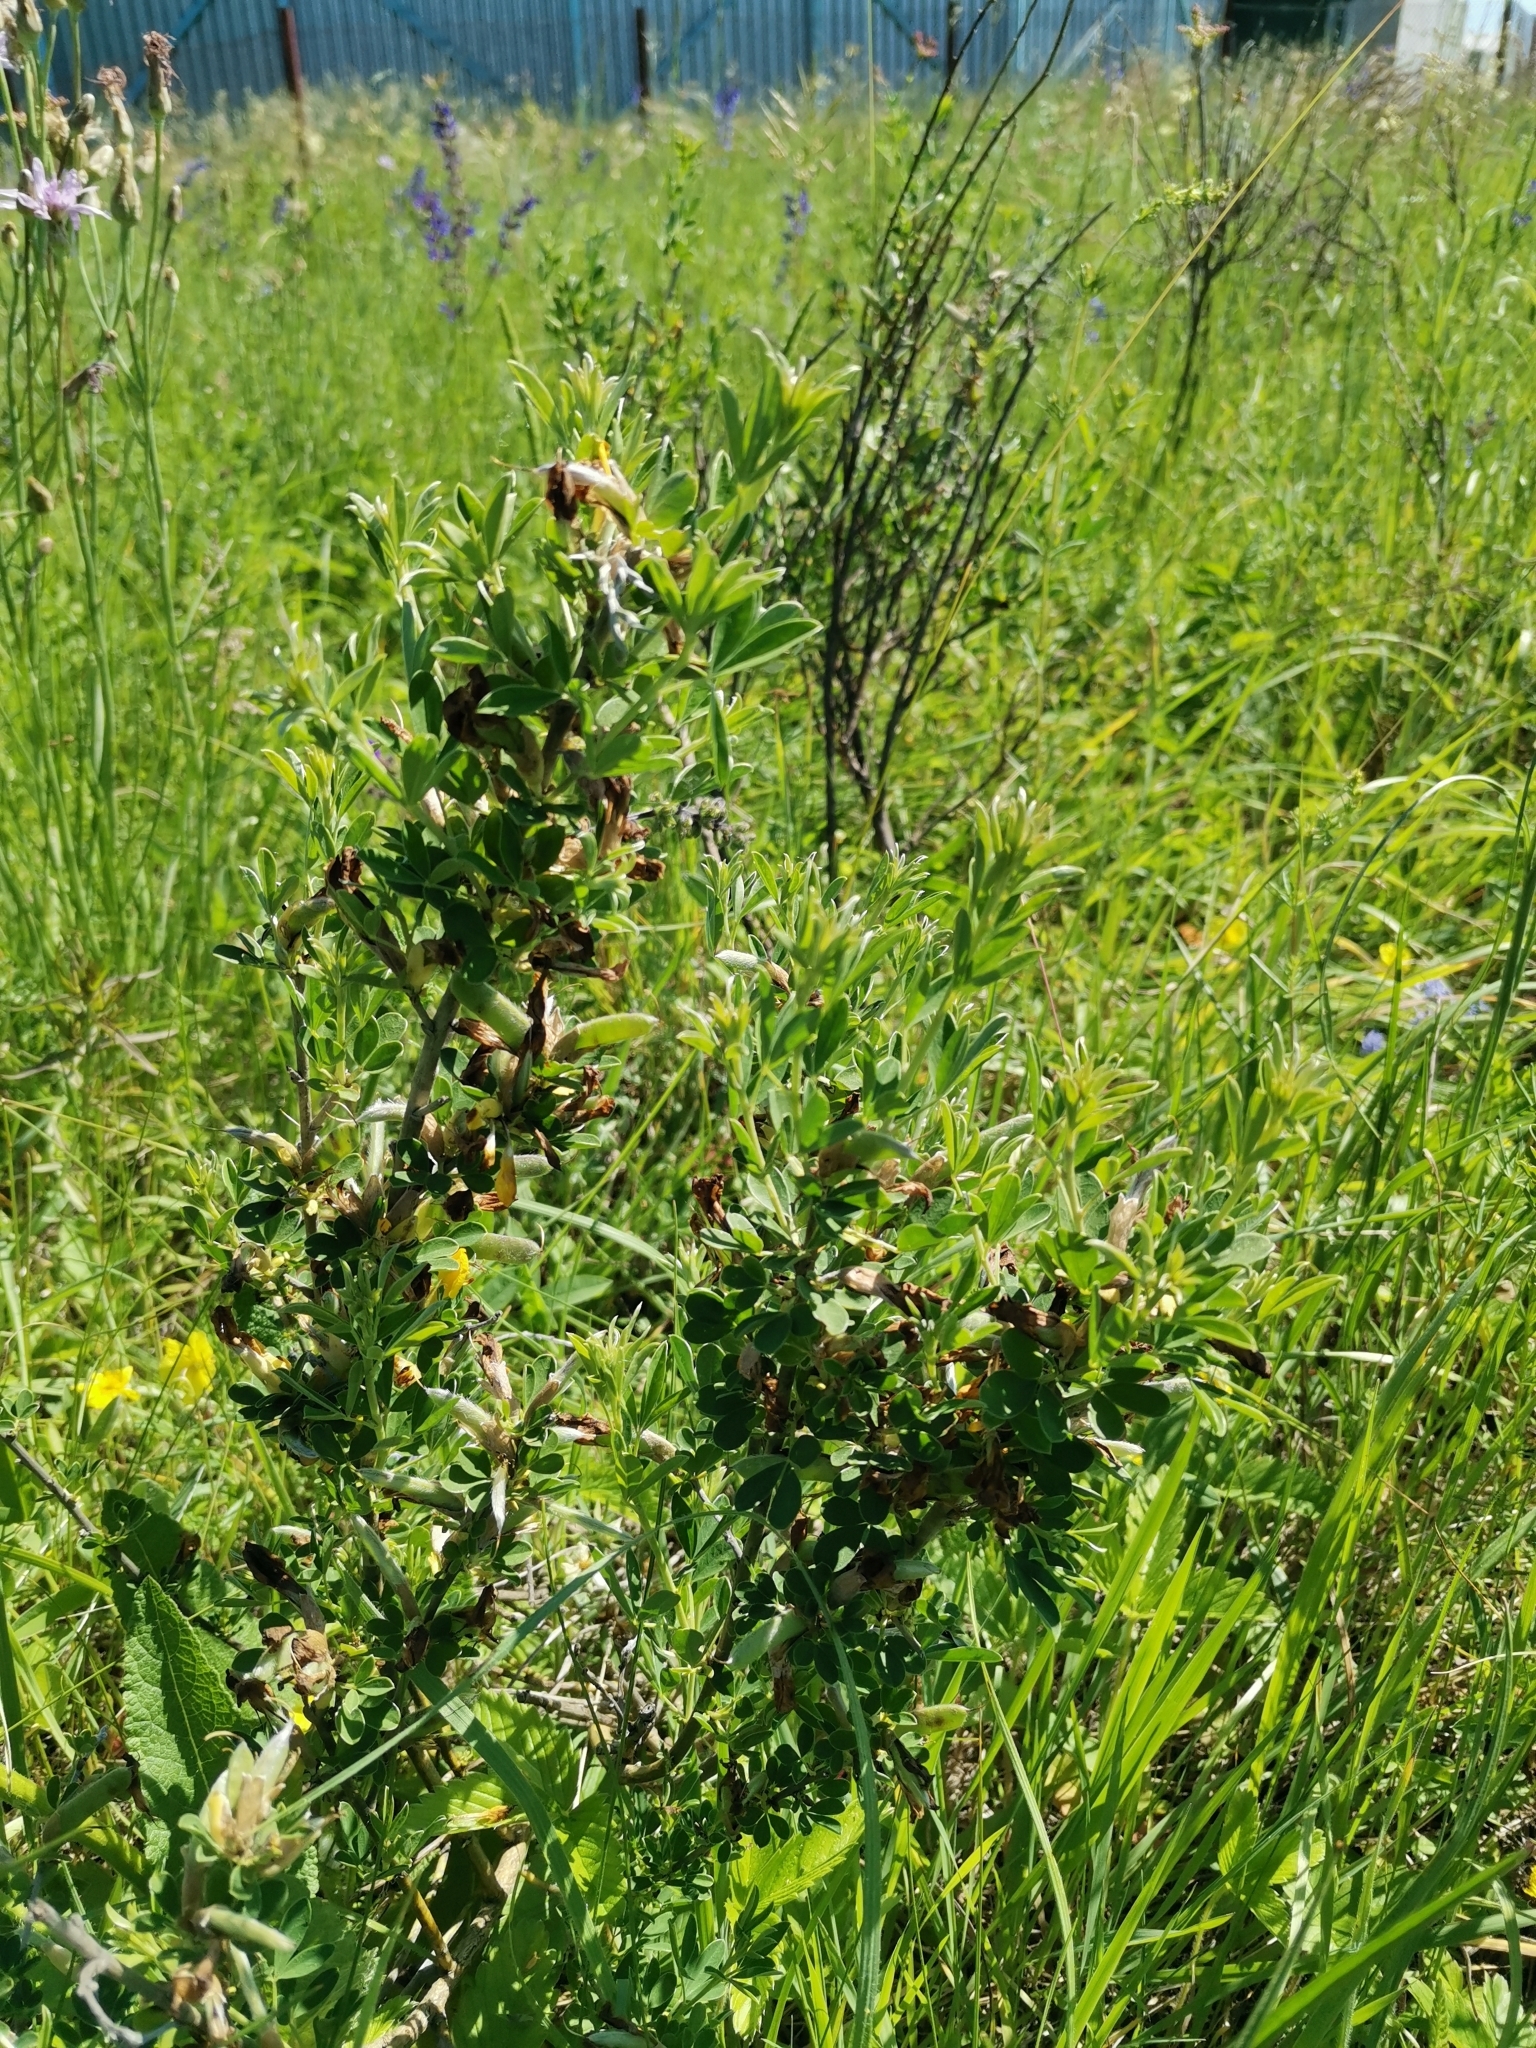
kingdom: Plantae
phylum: Tracheophyta
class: Magnoliopsida
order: Fabales
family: Fabaceae
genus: Chamaecytisus
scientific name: Chamaecytisus ruthenicus
